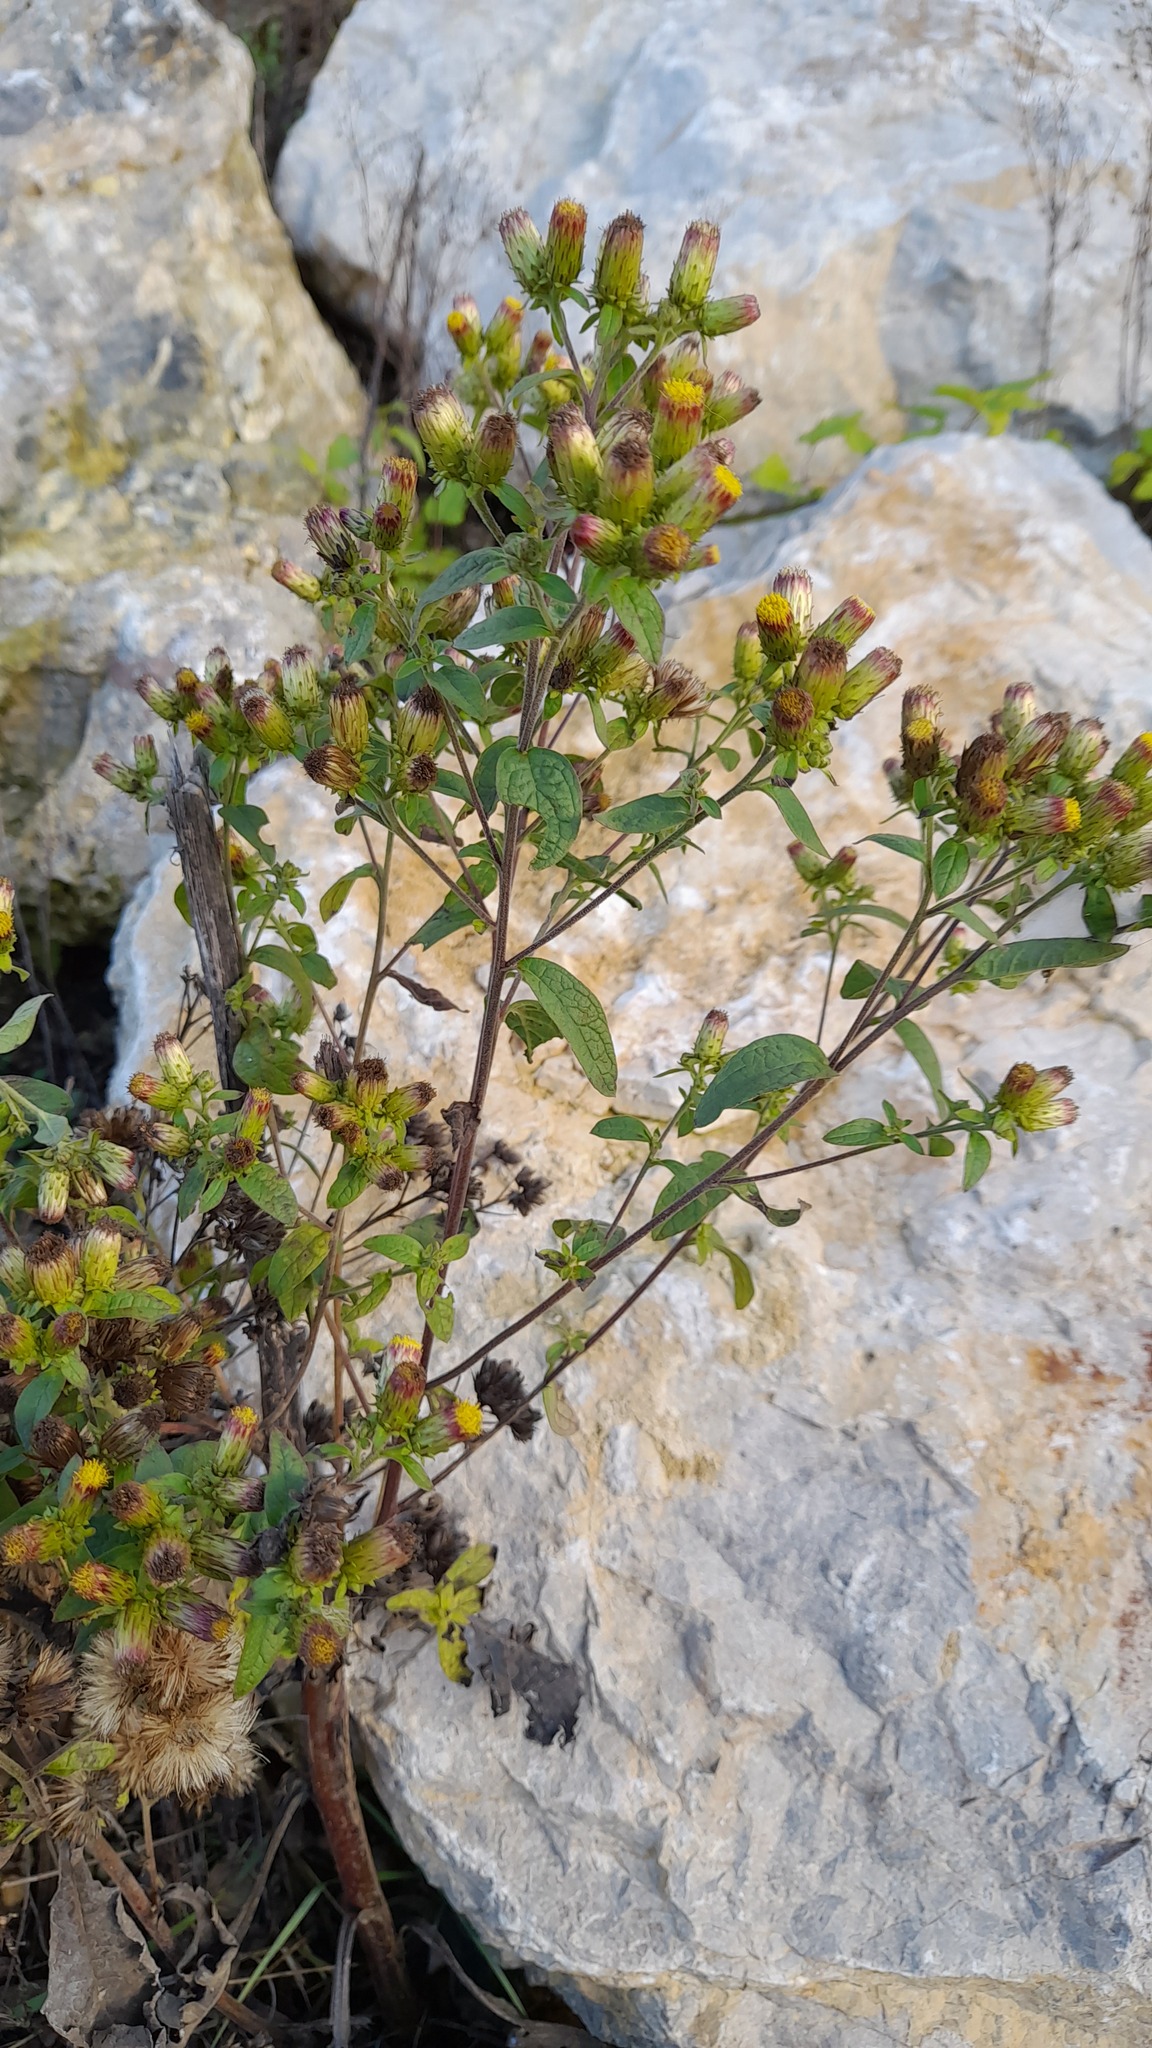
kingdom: Plantae
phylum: Tracheophyta
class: Magnoliopsida
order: Asterales
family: Asteraceae
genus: Pentanema
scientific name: Pentanema squarrosum
